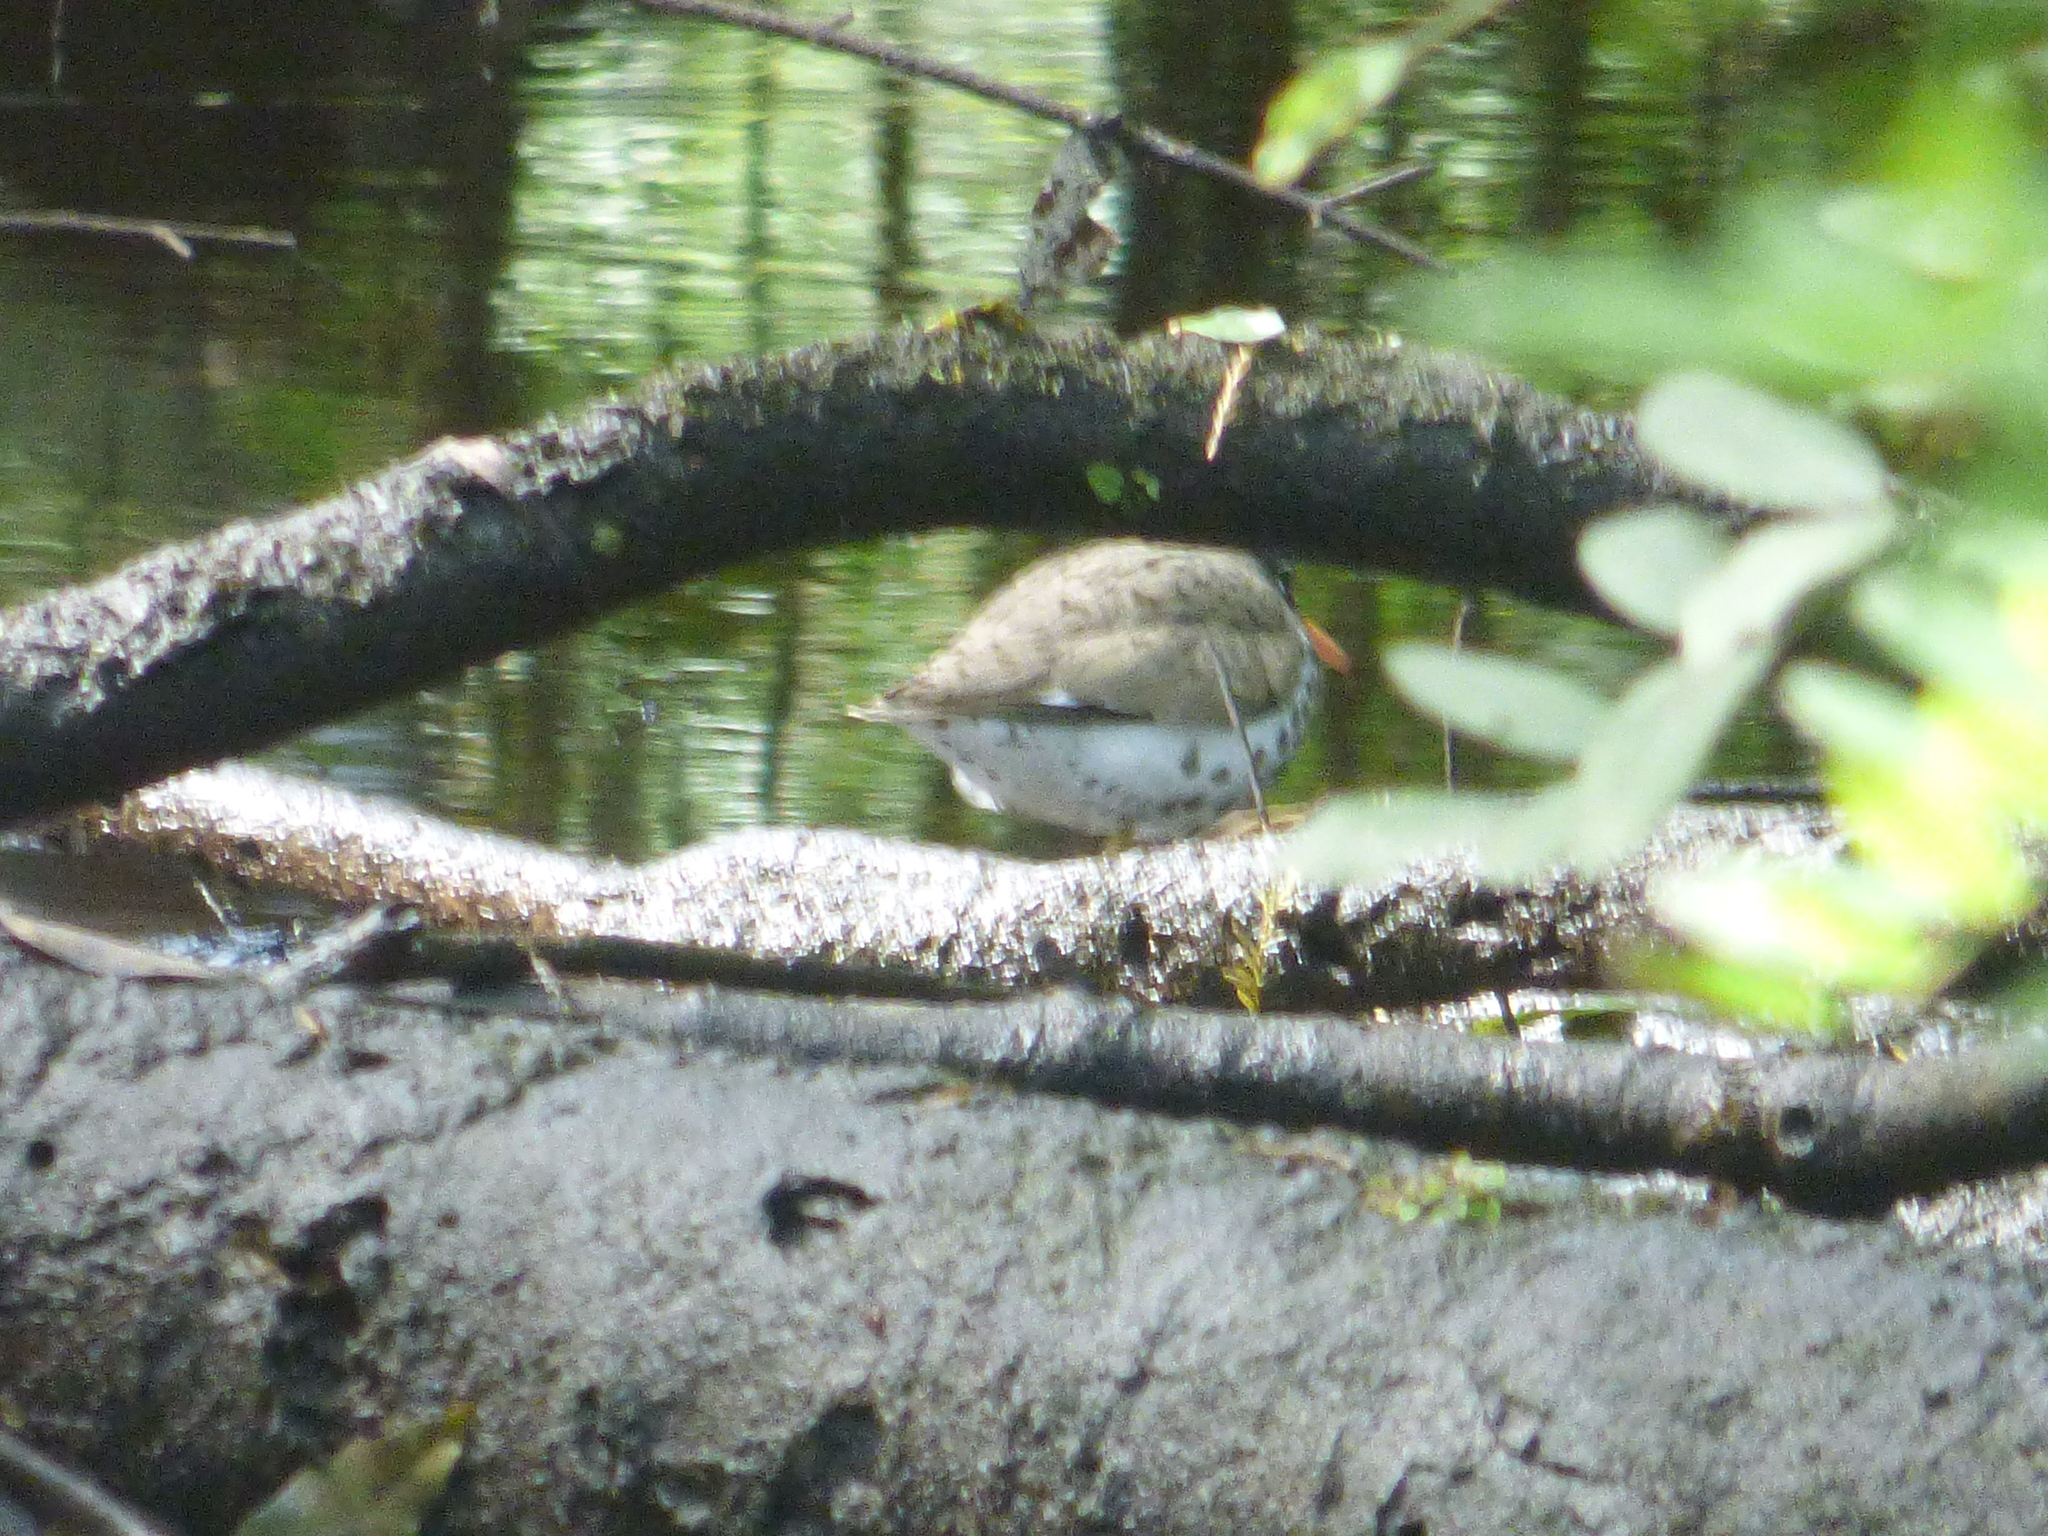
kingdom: Animalia
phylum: Chordata
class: Aves
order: Charadriiformes
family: Scolopacidae
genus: Actitis
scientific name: Actitis macularius
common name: Spotted sandpiper
